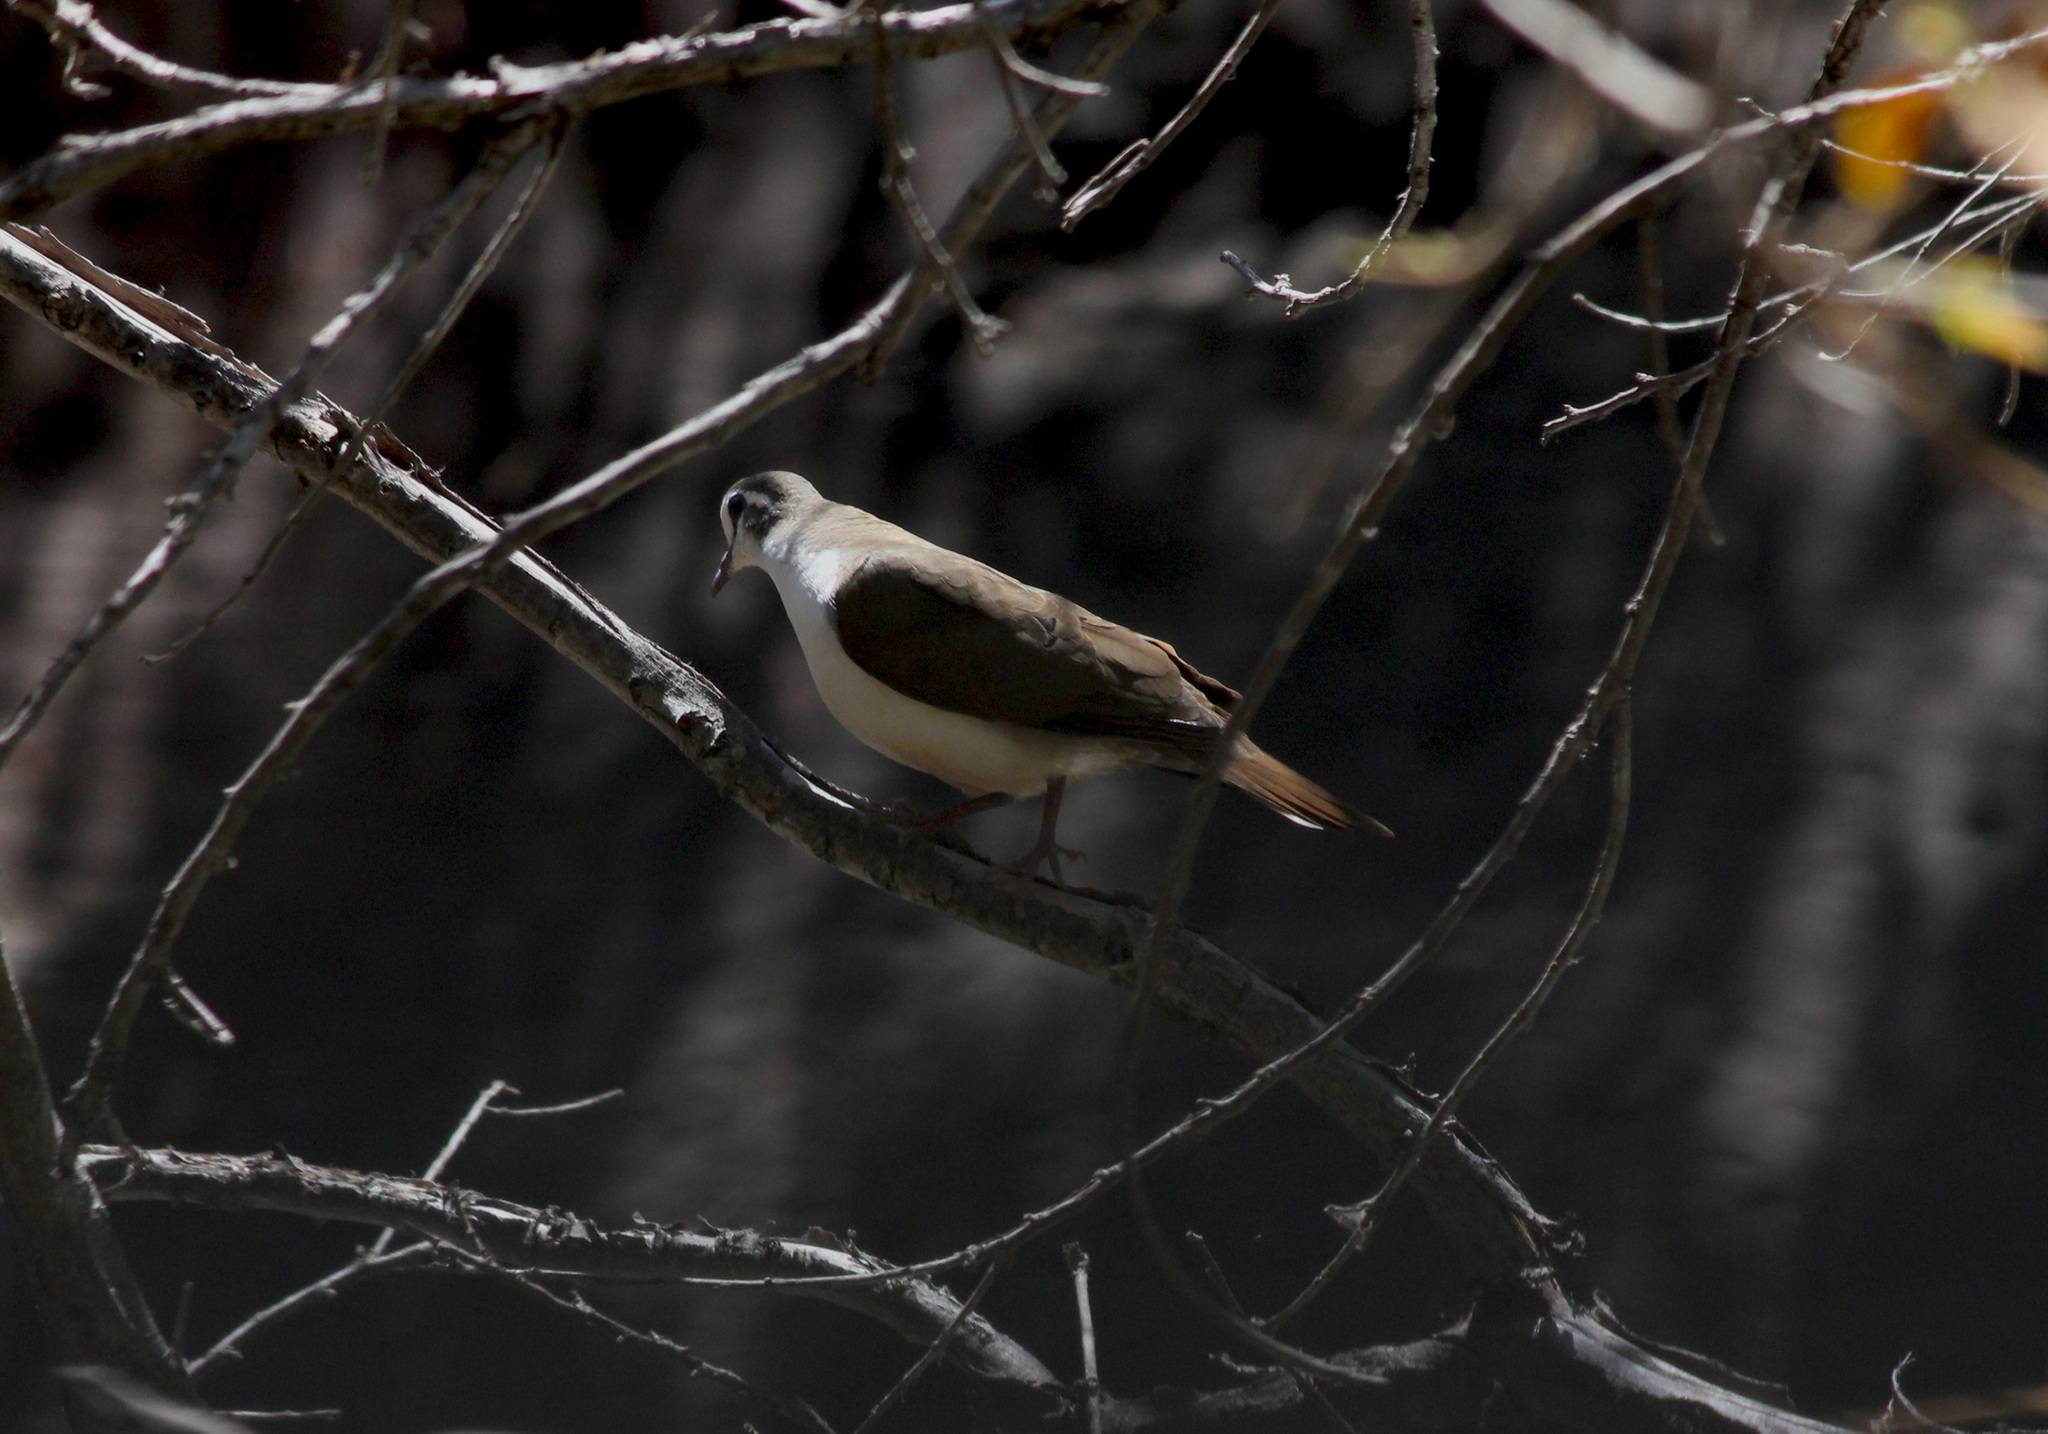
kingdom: Animalia
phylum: Chordata
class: Aves
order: Columbiformes
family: Columbidae
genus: Turtur
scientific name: Turtur tympanistria
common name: Tambourine dove
